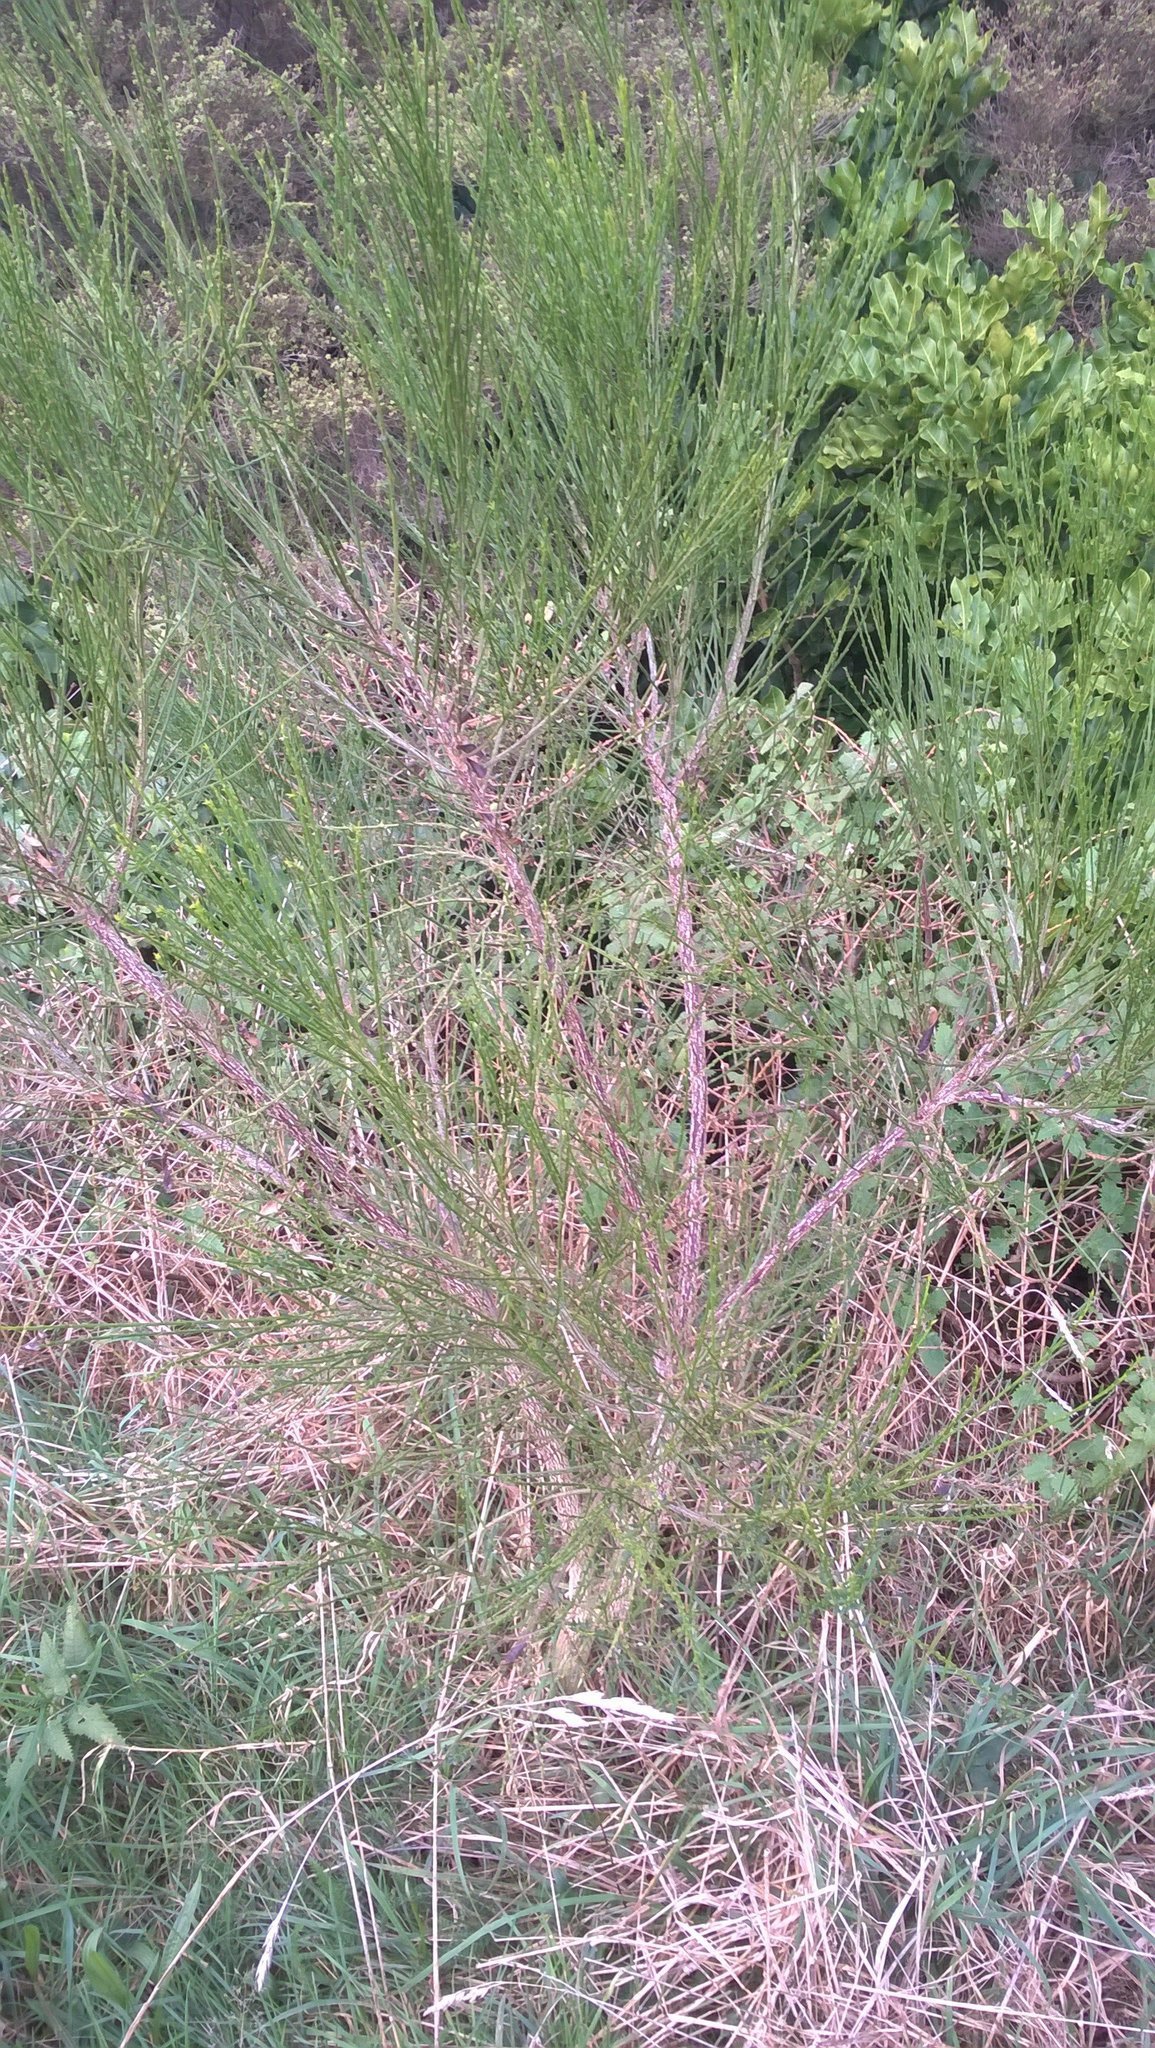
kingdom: Plantae
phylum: Tracheophyta
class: Magnoliopsida
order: Fabales
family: Fabaceae
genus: Cytisus
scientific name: Cytisus scoparius
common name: Scotch broom
